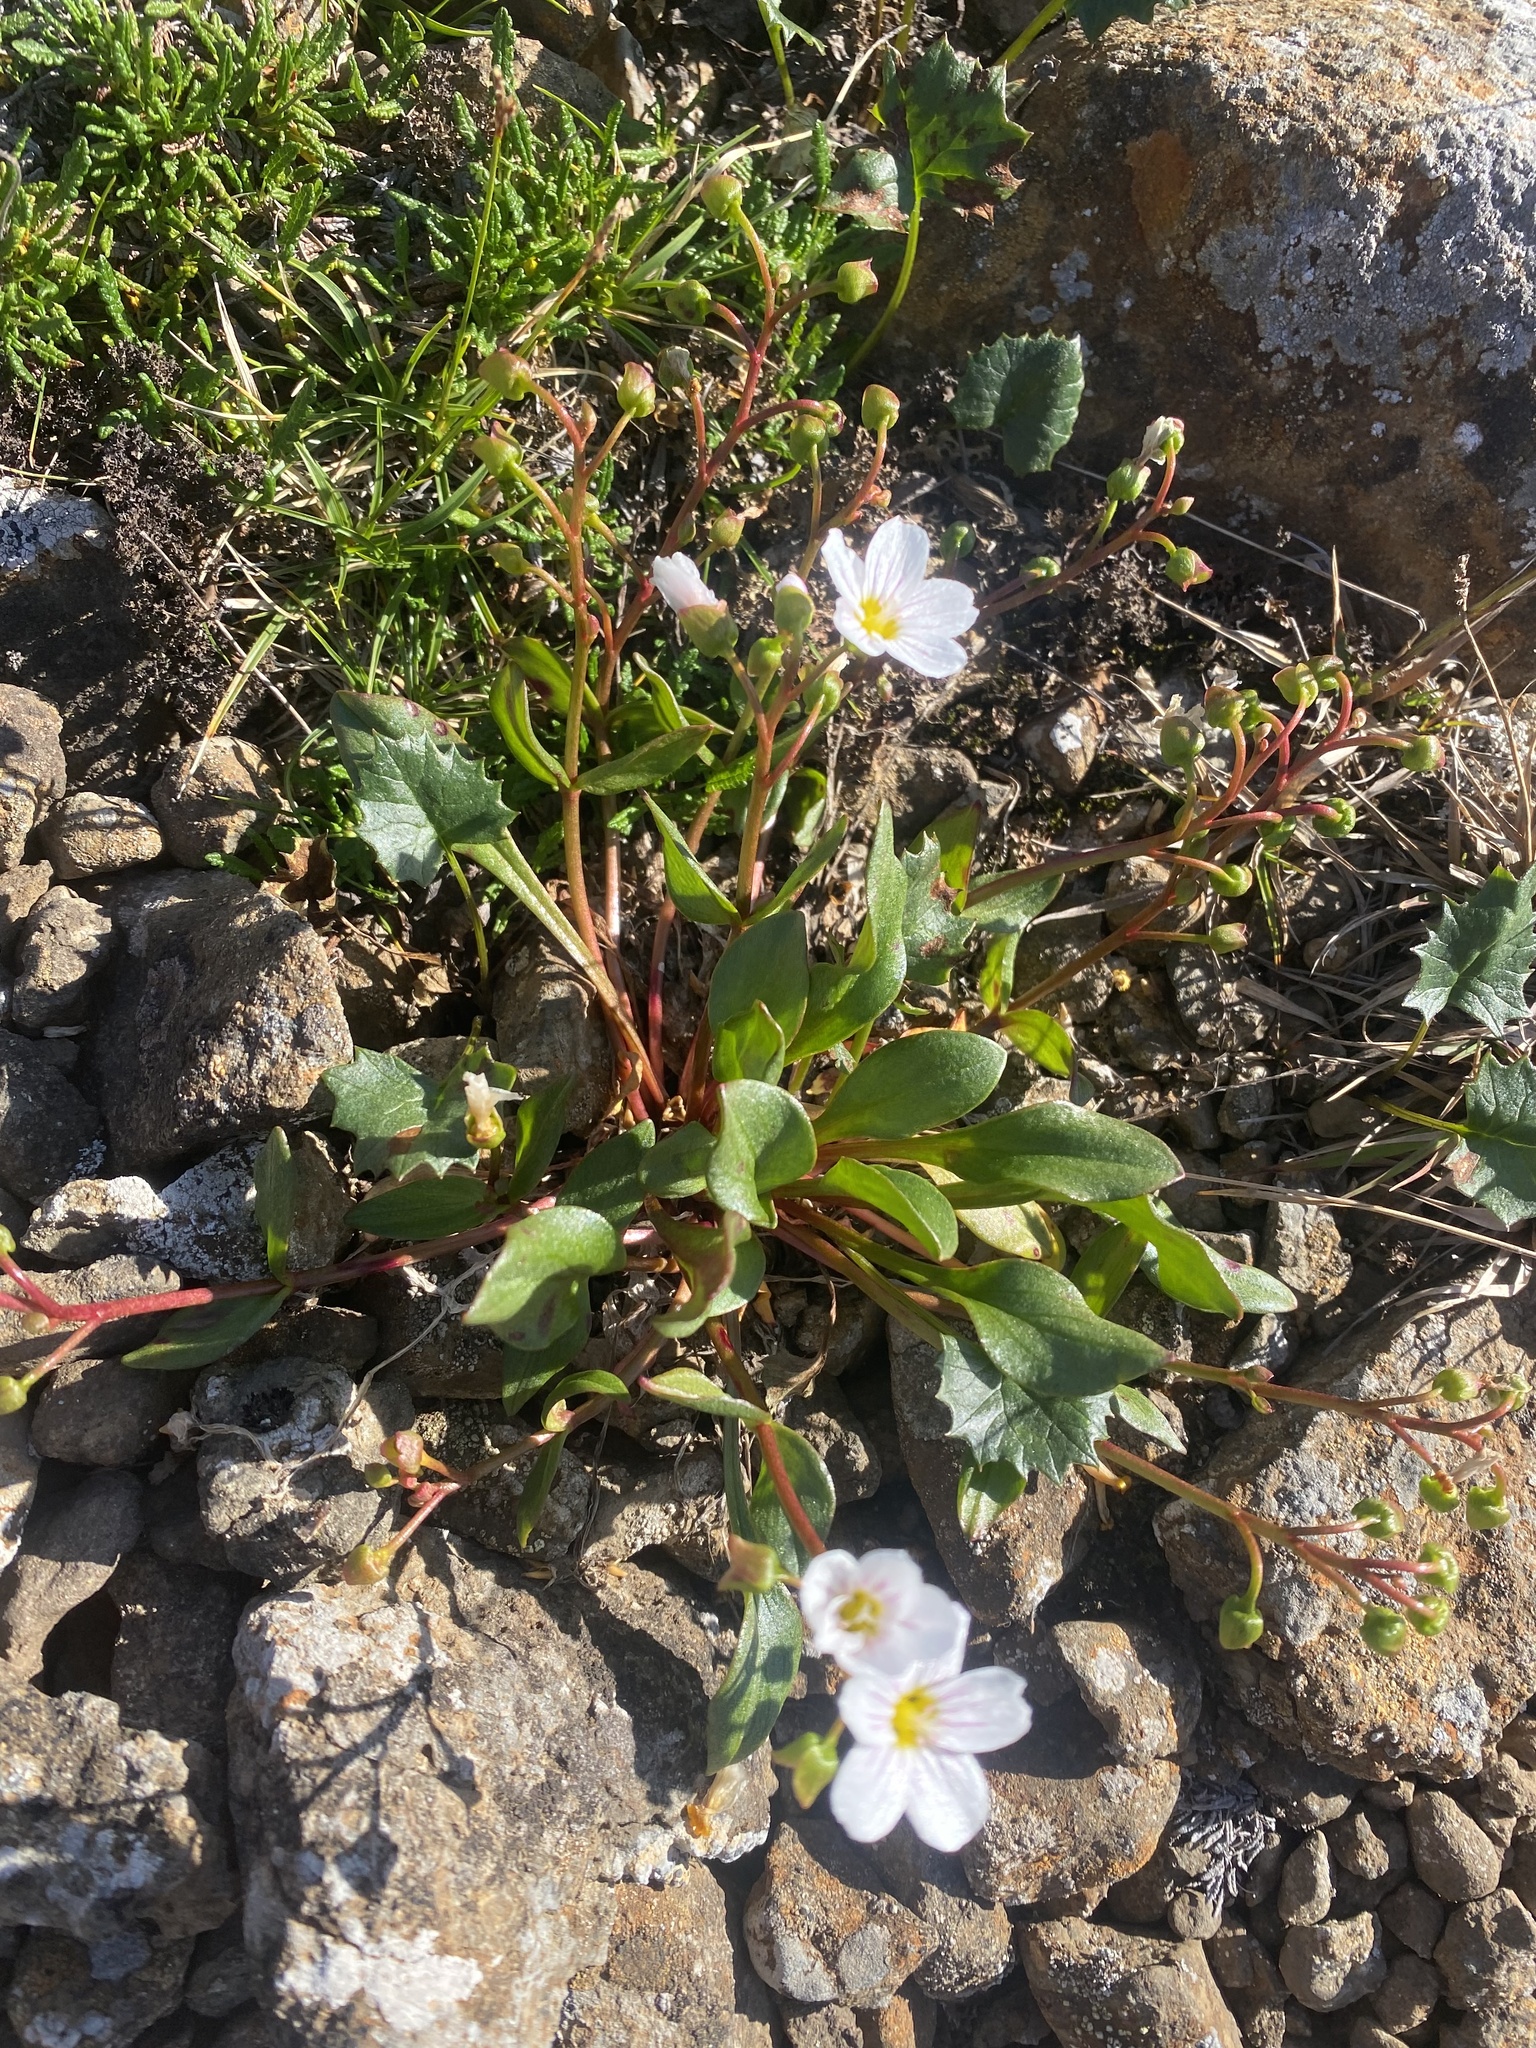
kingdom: Plantae
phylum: Tracheophyta
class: Magnoliopsida
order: Caryophyllales
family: Montiaceae
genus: Claytonia
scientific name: Claytonia joanneana
